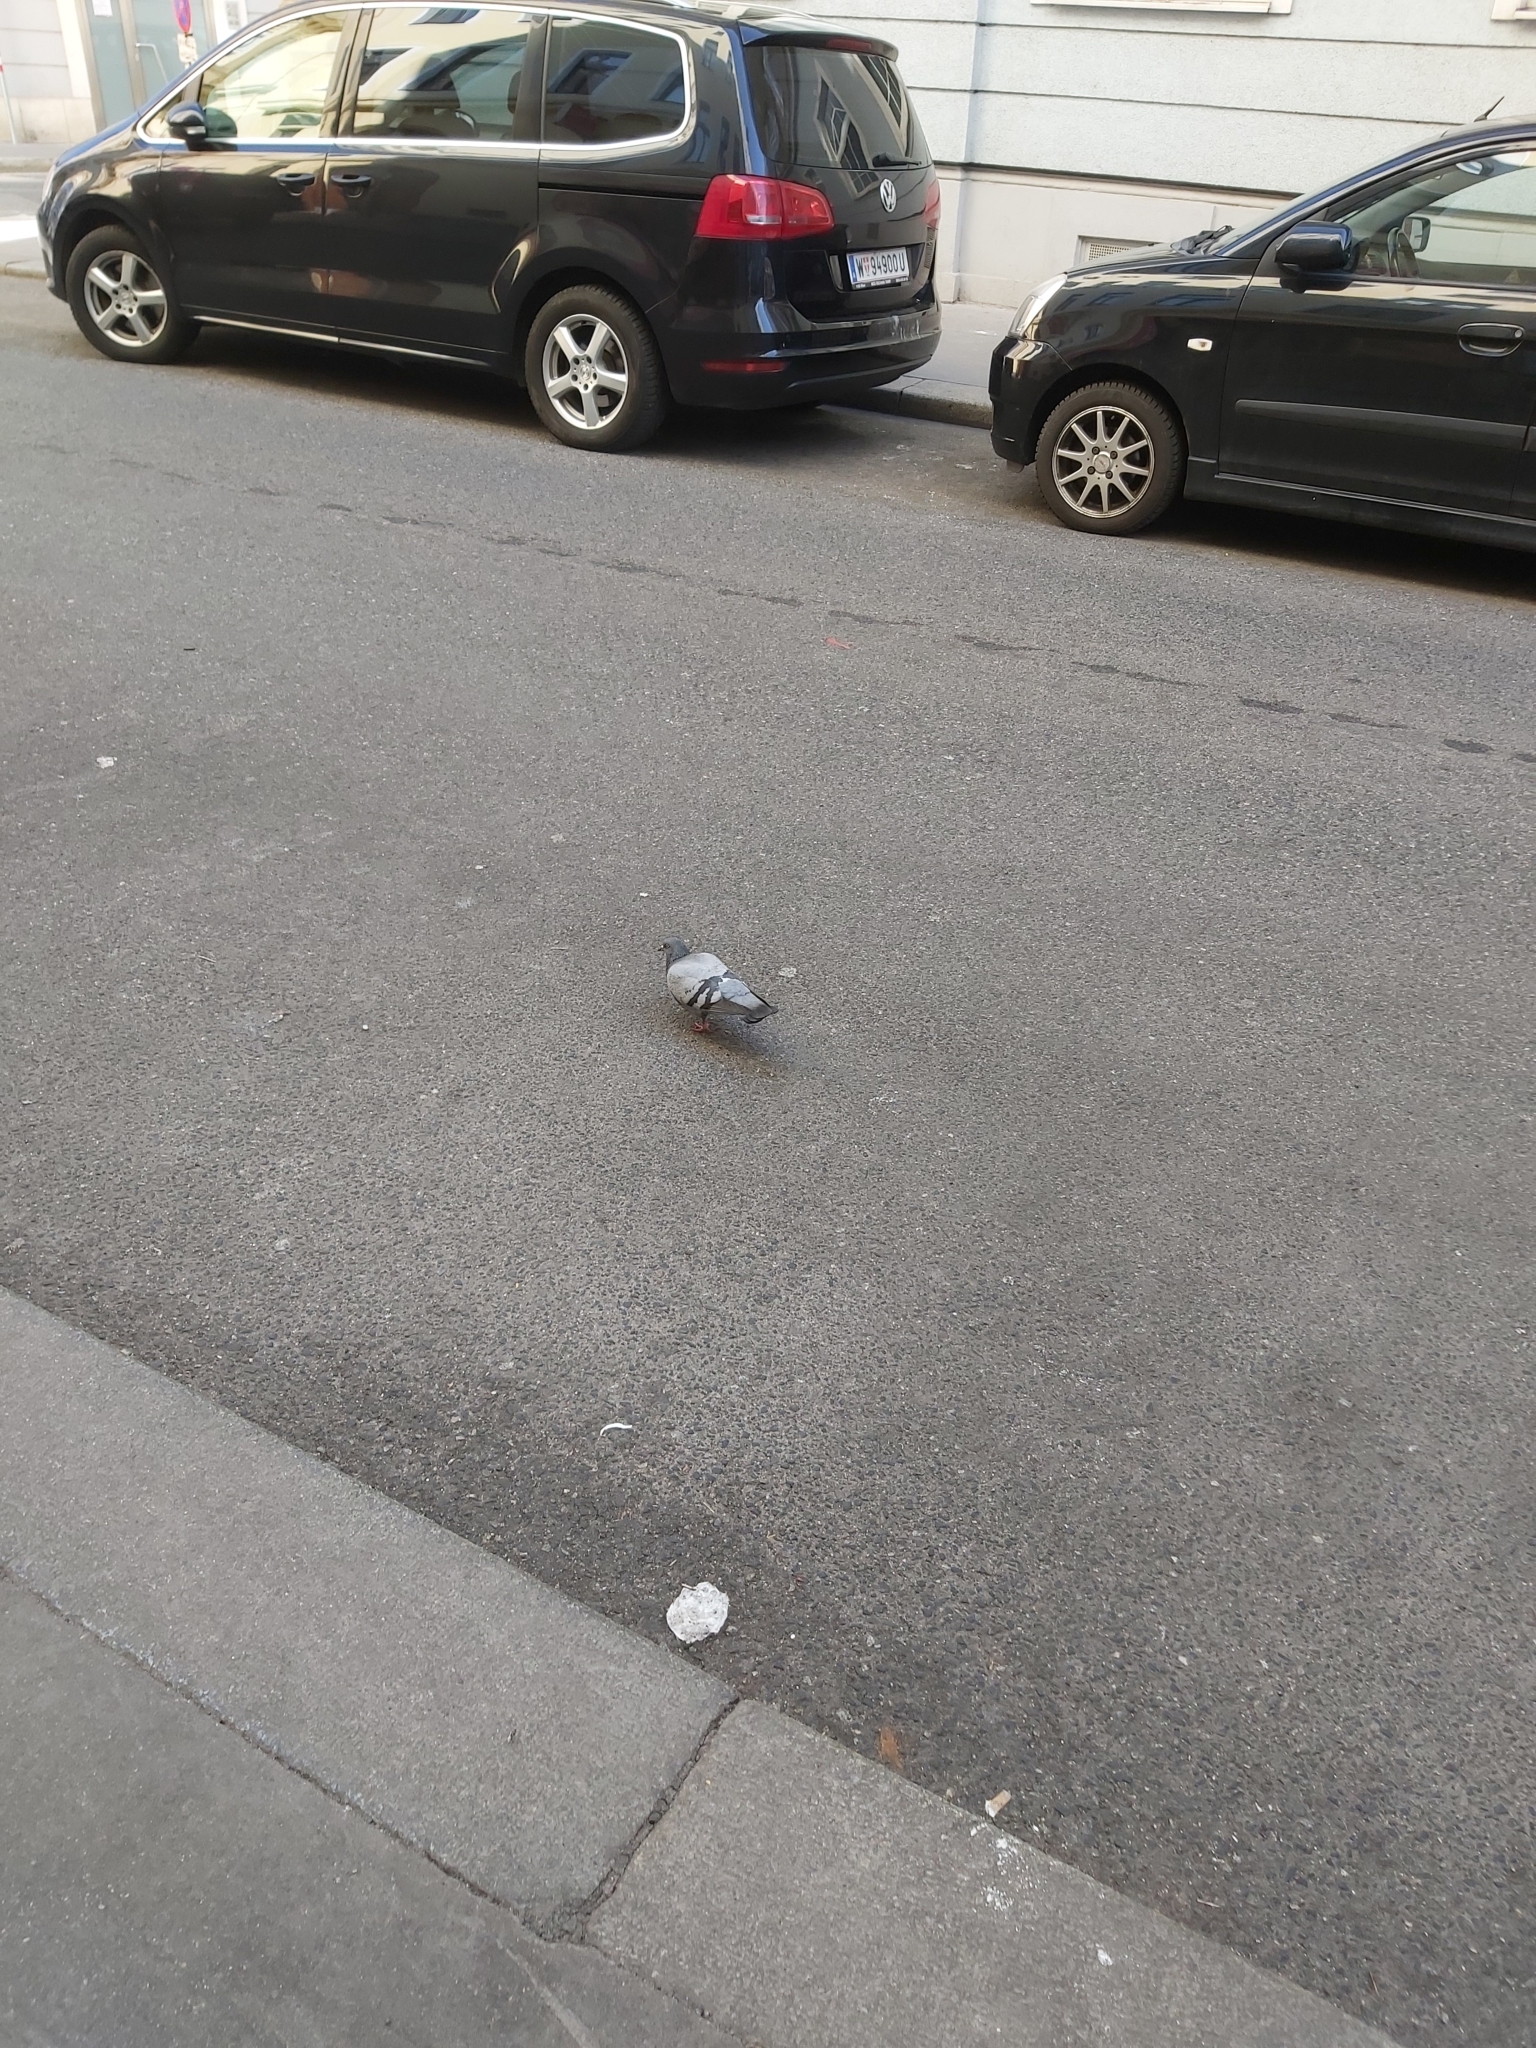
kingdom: Animalia
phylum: Chordata
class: Aves
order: Columbiformes
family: Columbidae
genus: Columba
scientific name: Columba livia
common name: Rock pigeon
